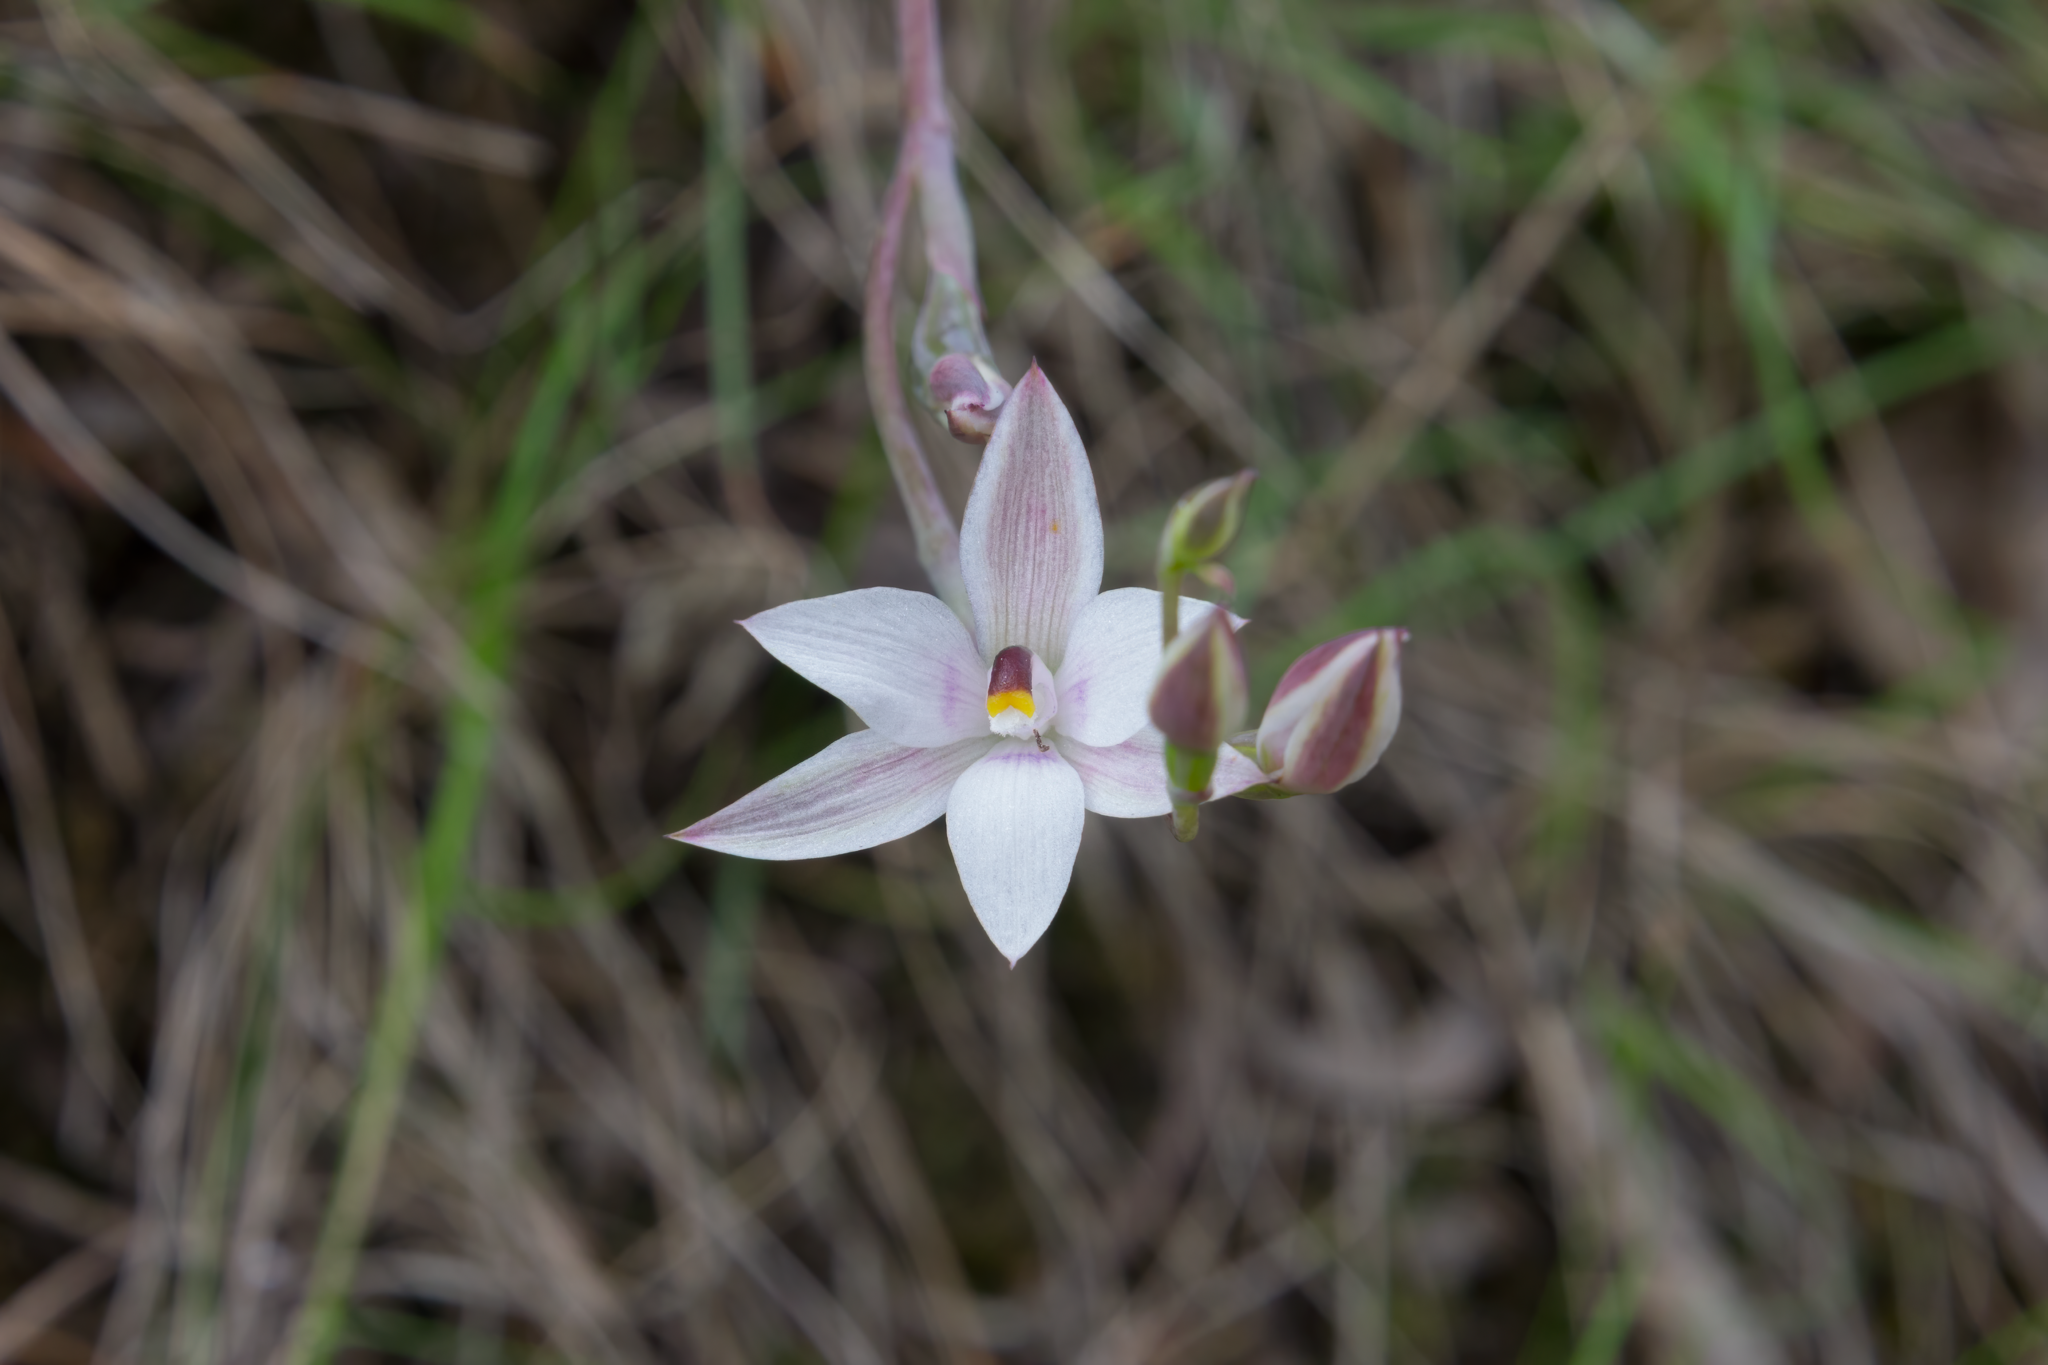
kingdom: Plantae
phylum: Tracheophyta
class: Liliopsida
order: Asparagales
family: Orchidaceae
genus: Thelymitra
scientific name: Thelymitra longifolia
